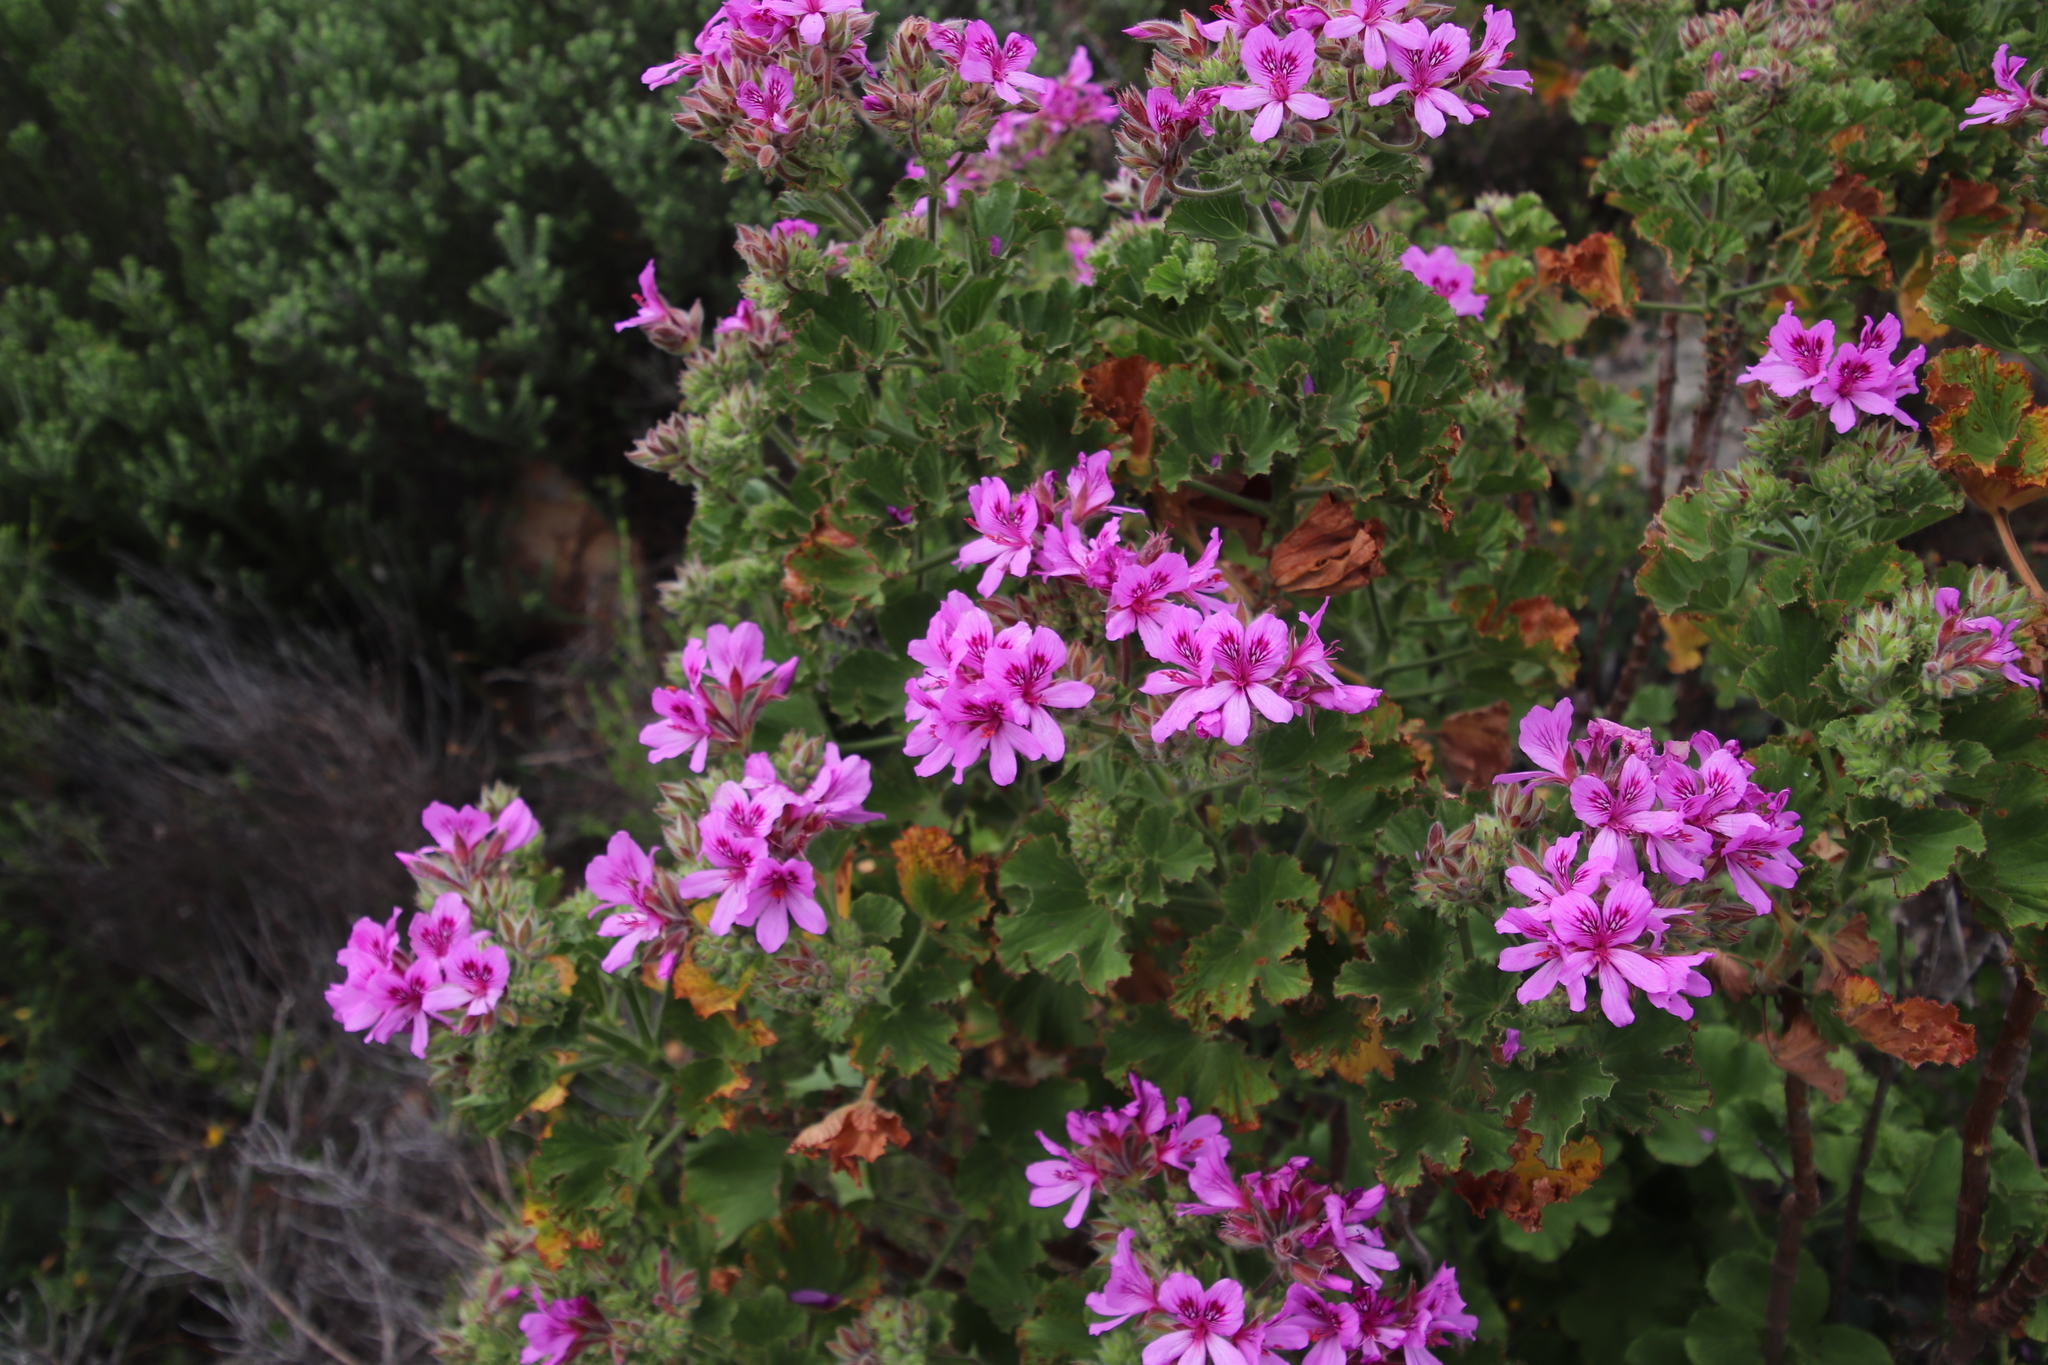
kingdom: Plantae
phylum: Tracheophyta
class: Magnoliopsida
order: Geraniales
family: Geraniaceae
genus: Pelargonium
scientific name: Pelargonium cucullatum
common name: Tree pelargonium
